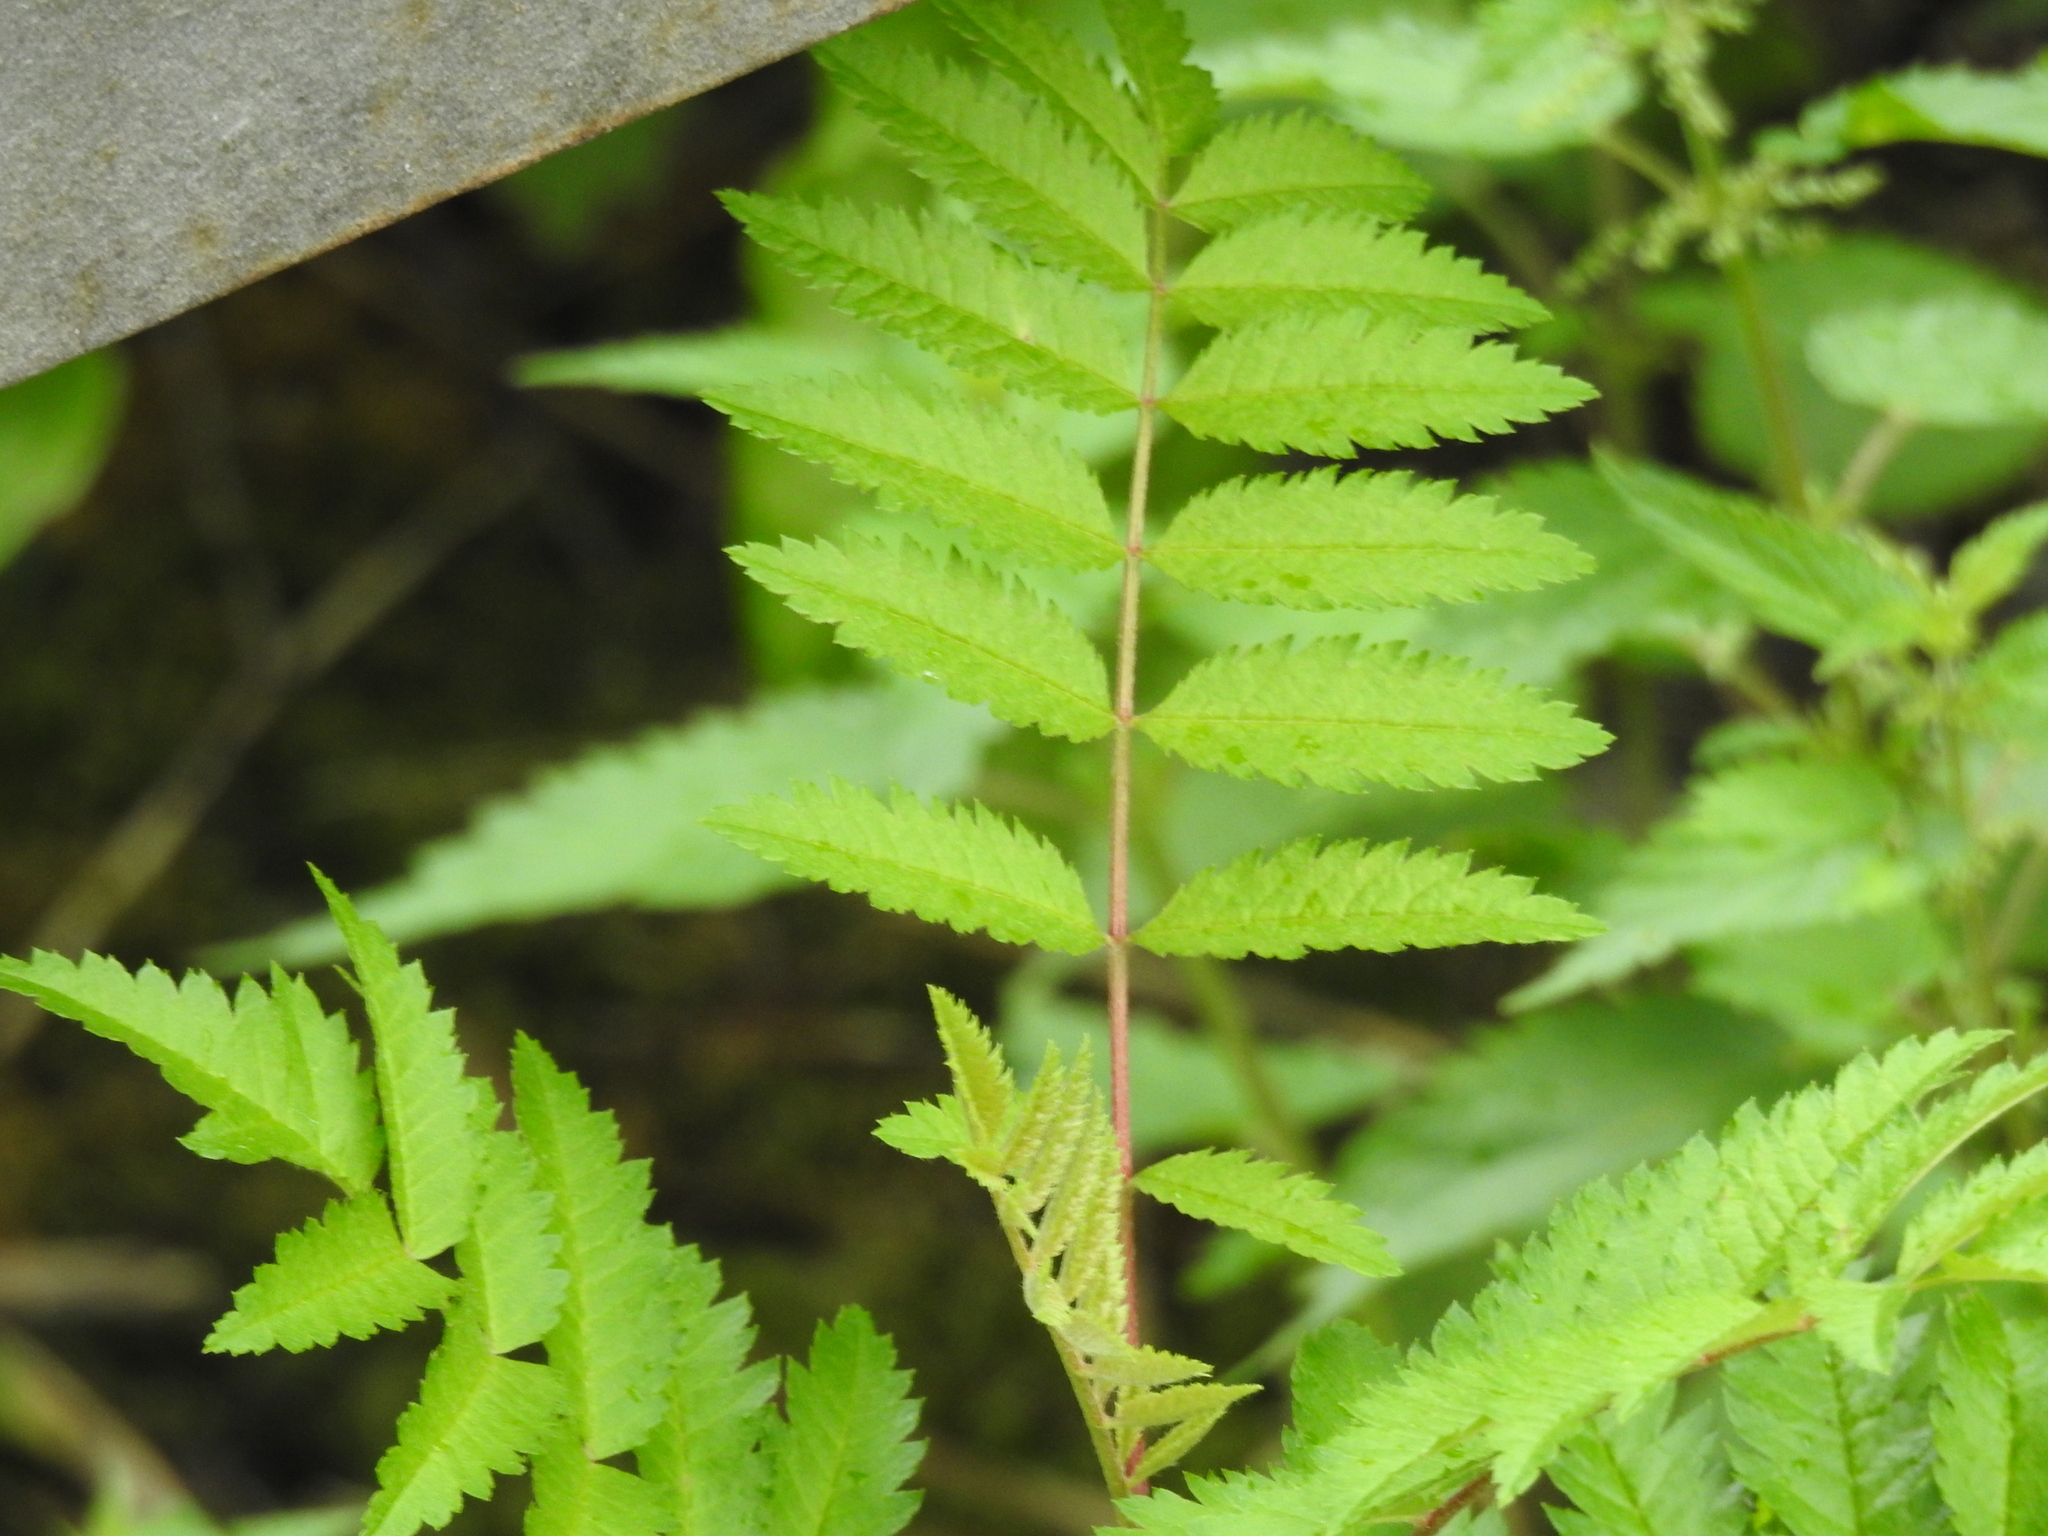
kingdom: Plantae
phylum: Tracheophyta
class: Magnoliopsida
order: Rosales
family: Rosaceae
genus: Sorbus
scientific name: Sorbus aucuparia
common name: Rowan
